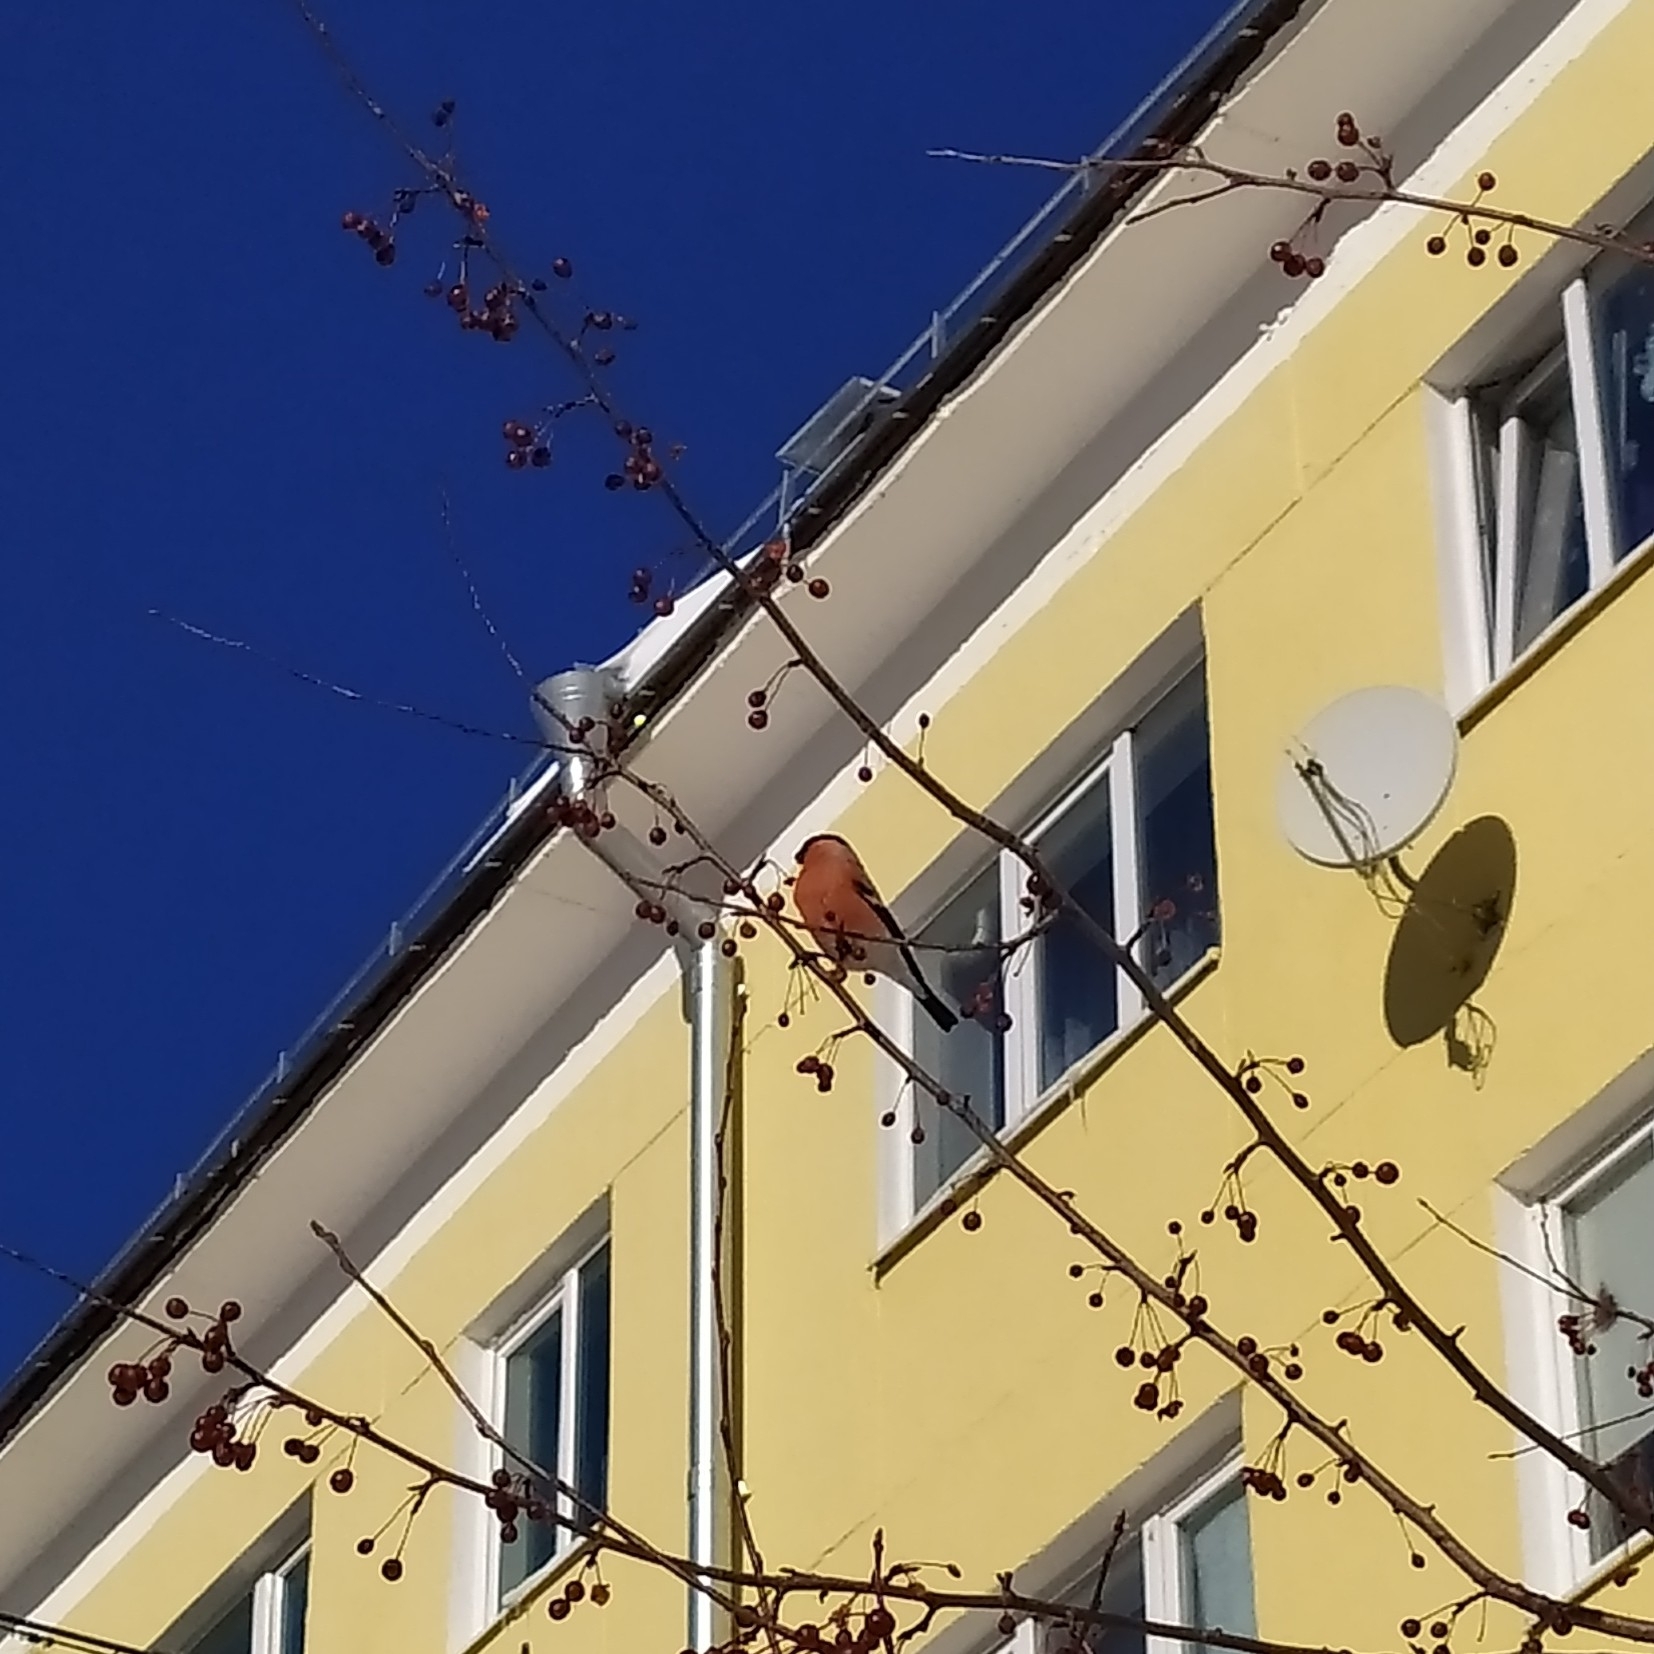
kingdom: Animalia
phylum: Chordata
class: Aves
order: Passeriformes
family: Fringillidae
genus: Pyrrhula
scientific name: Pyrrhula pyrrhula
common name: Eurasian bullfinch
